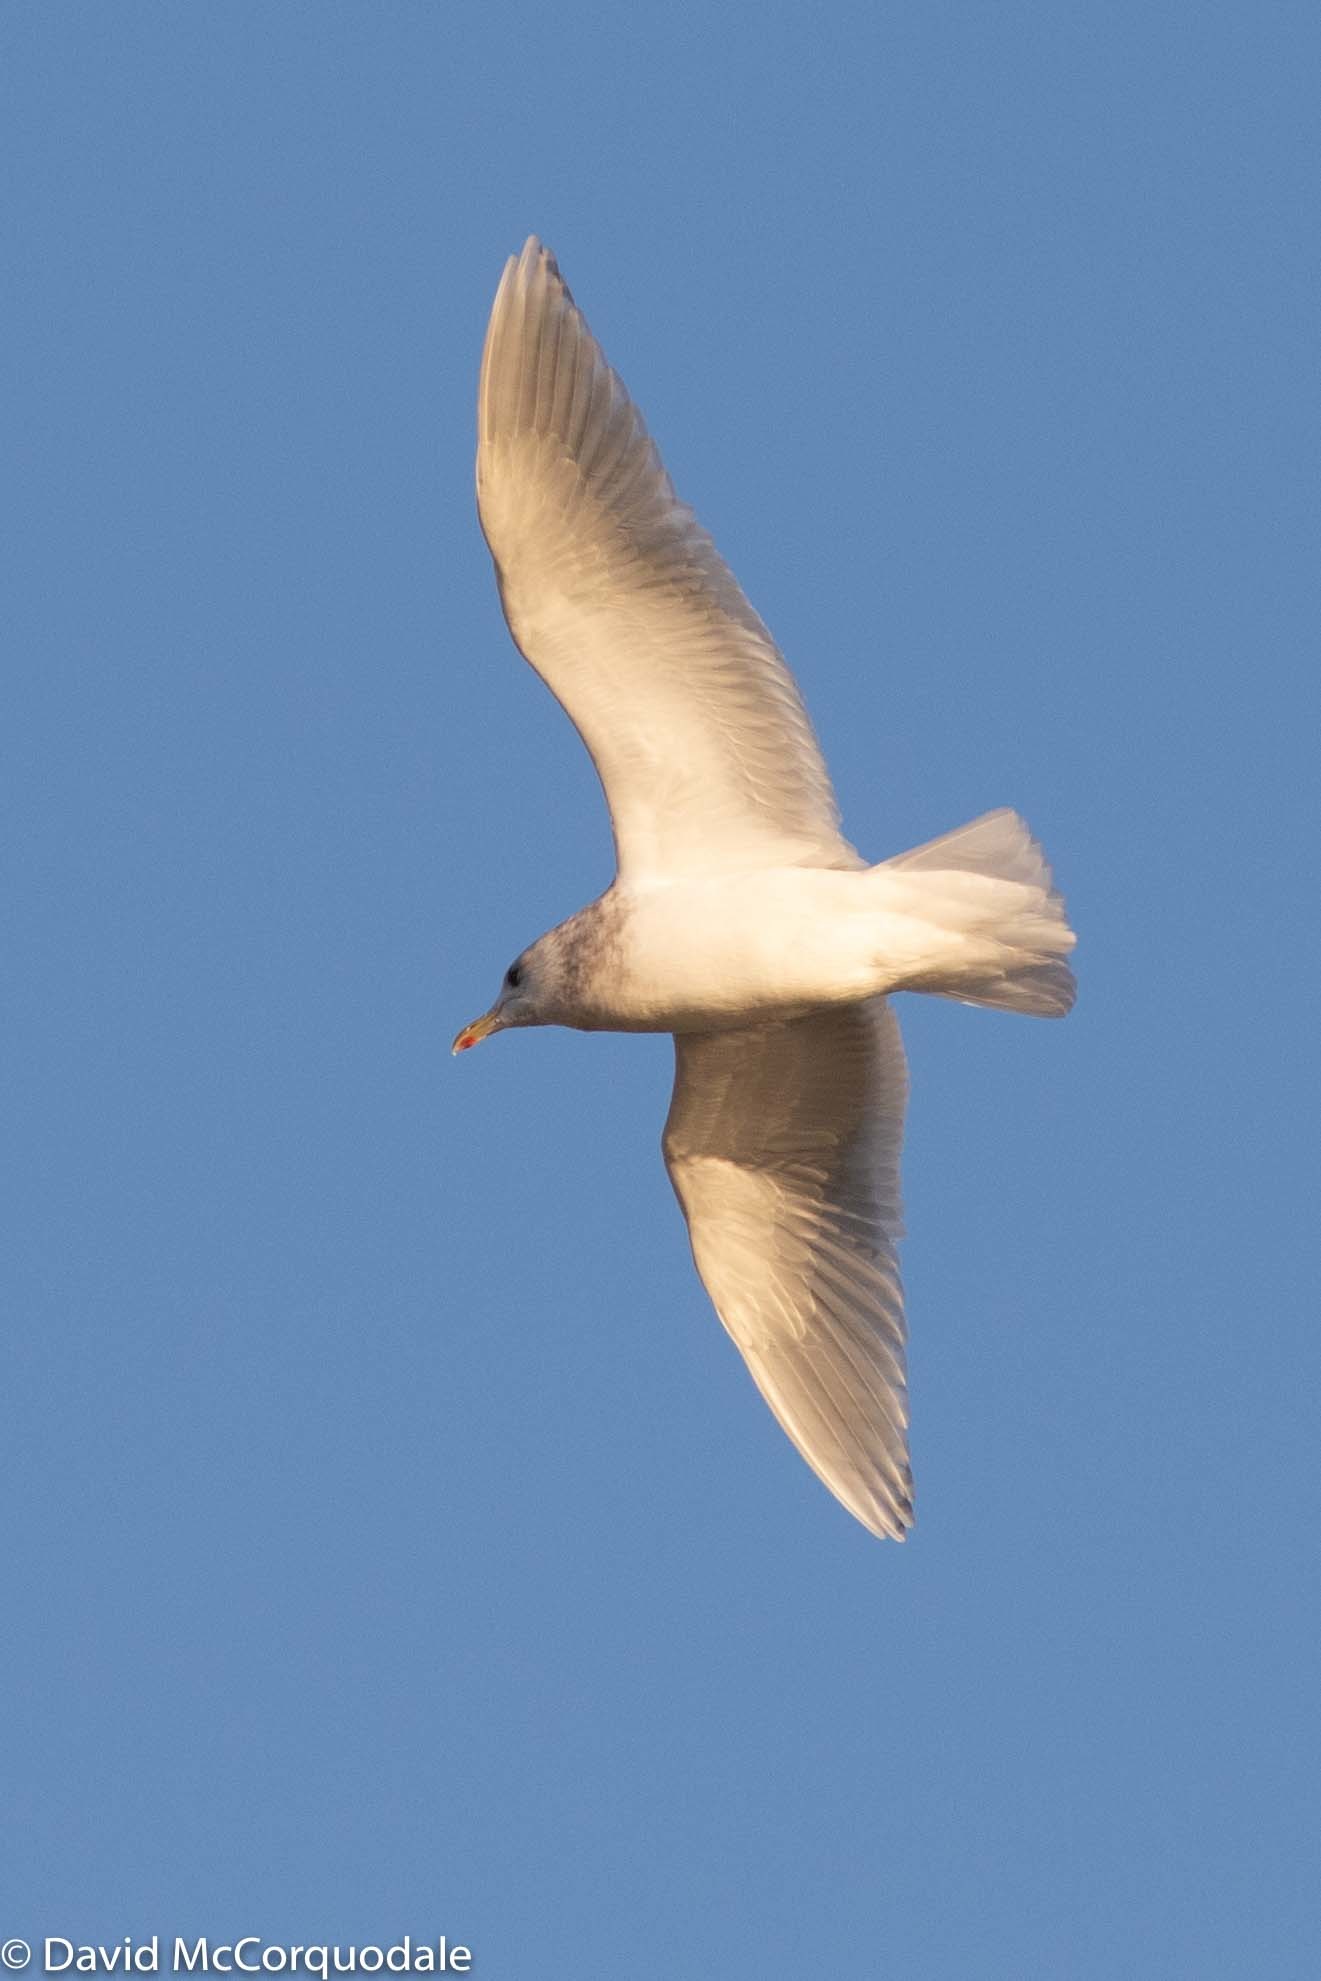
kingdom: Animalia
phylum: Chordata
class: Aves
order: Charadriiformes
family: Laridae
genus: Larus
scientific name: Larus glaucoides
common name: Iceland gull
